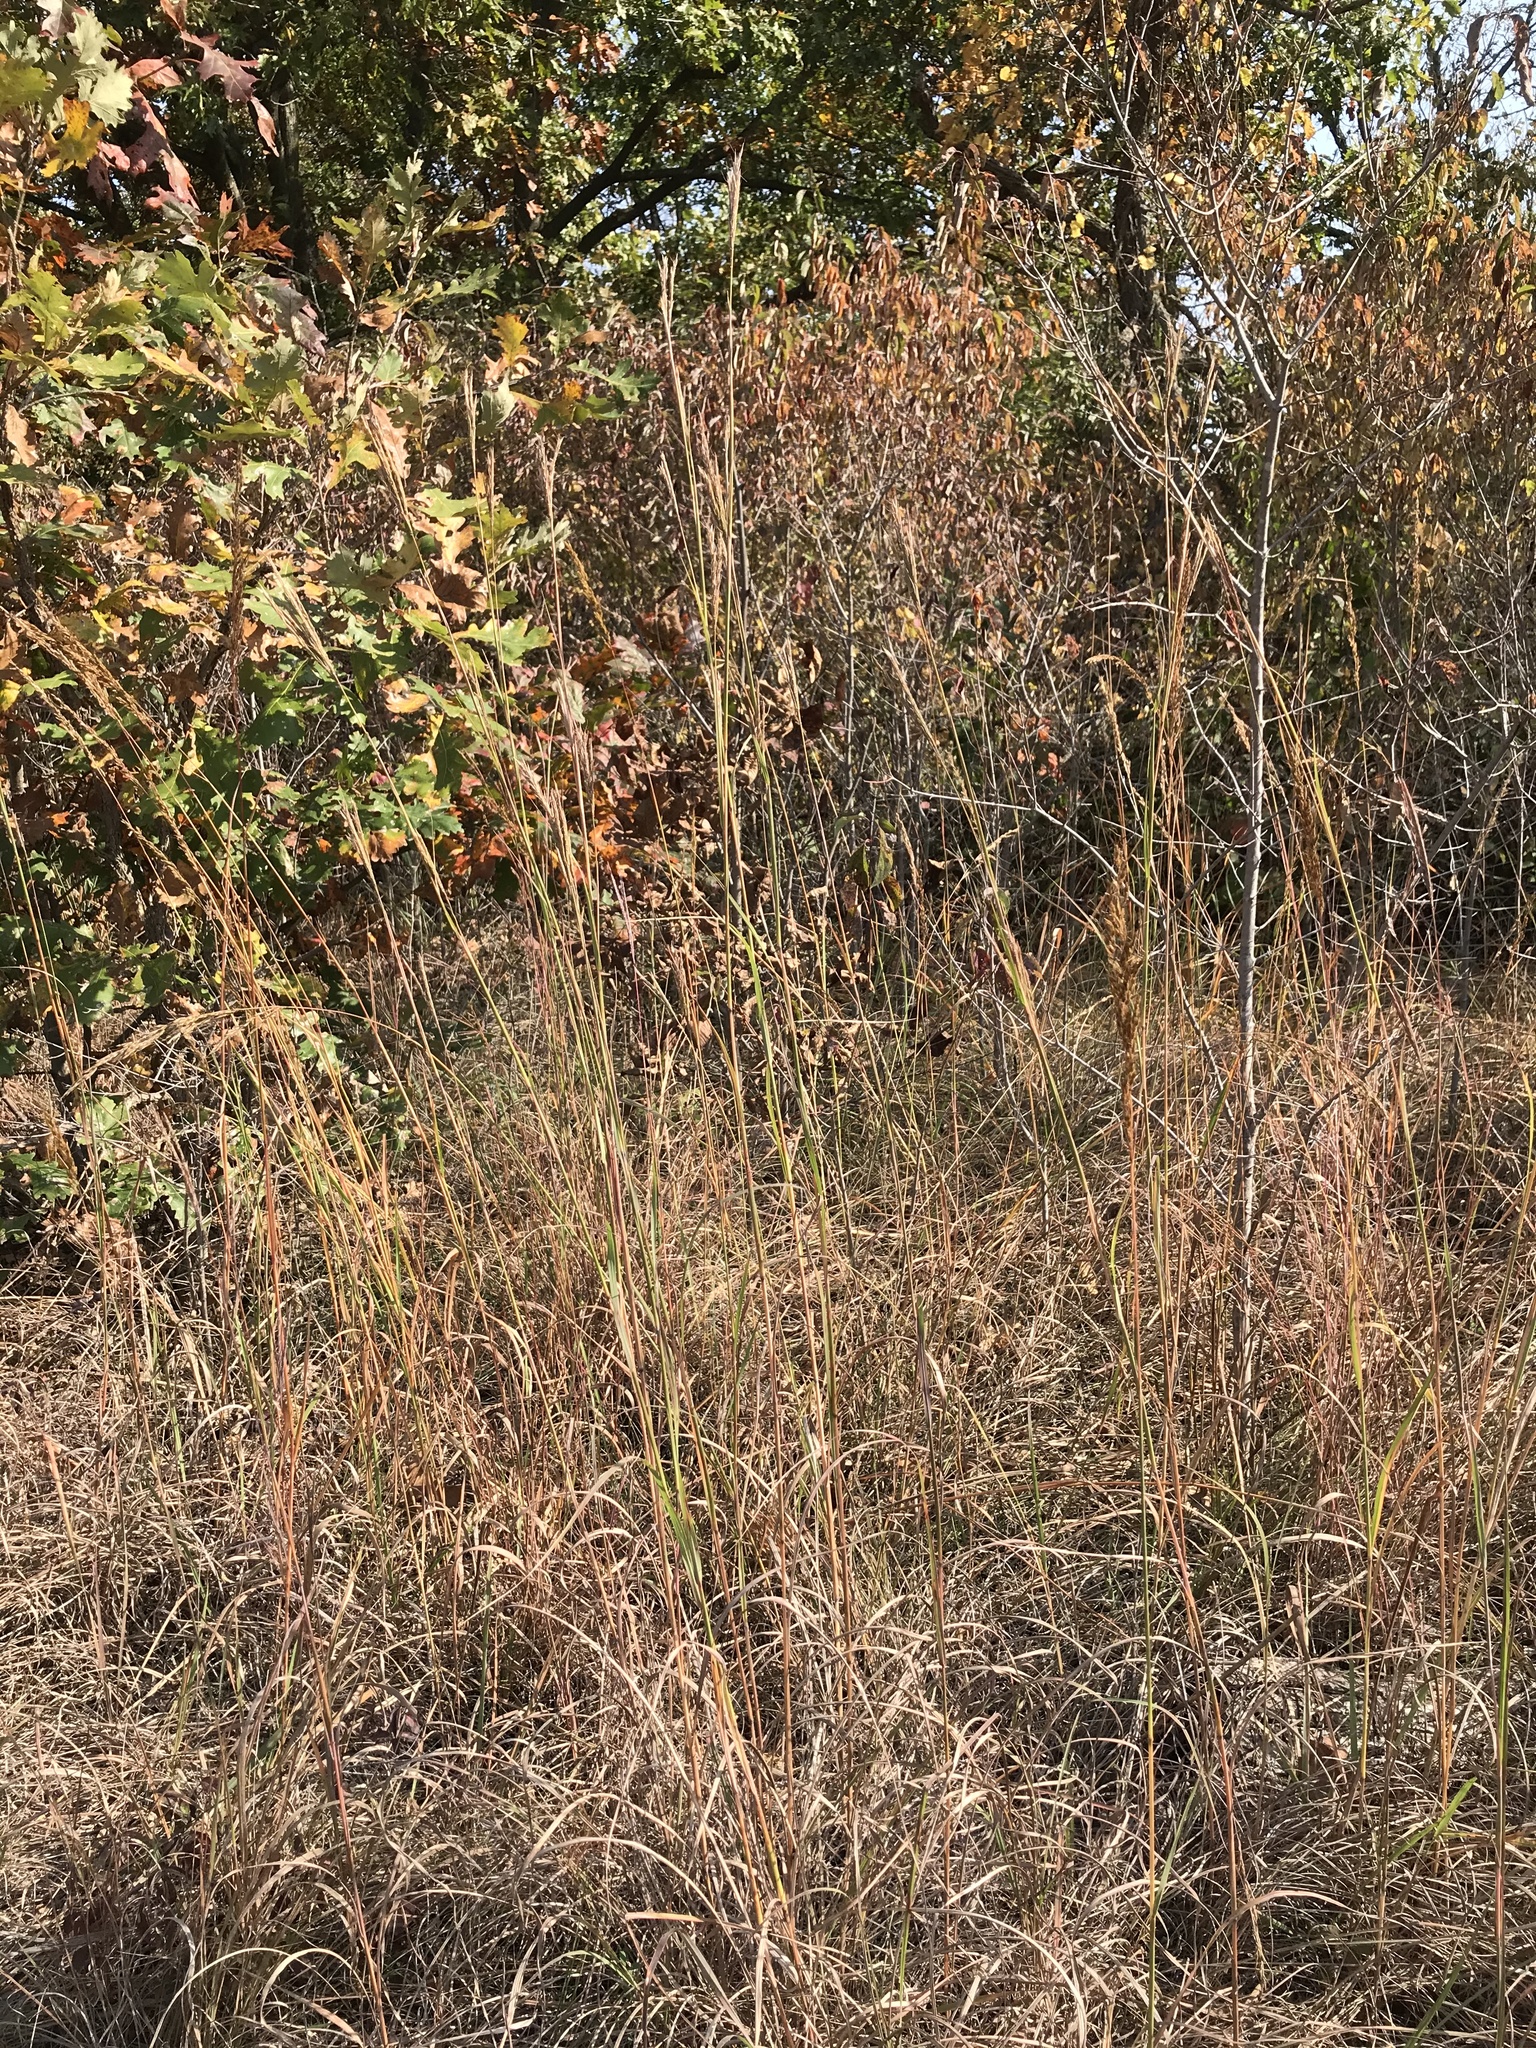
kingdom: Plantae
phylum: Tracheophyta
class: Liliopsida
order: Poales
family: Poaceae
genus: Andropogon
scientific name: Andropogon gerardi
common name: Big bluestem
